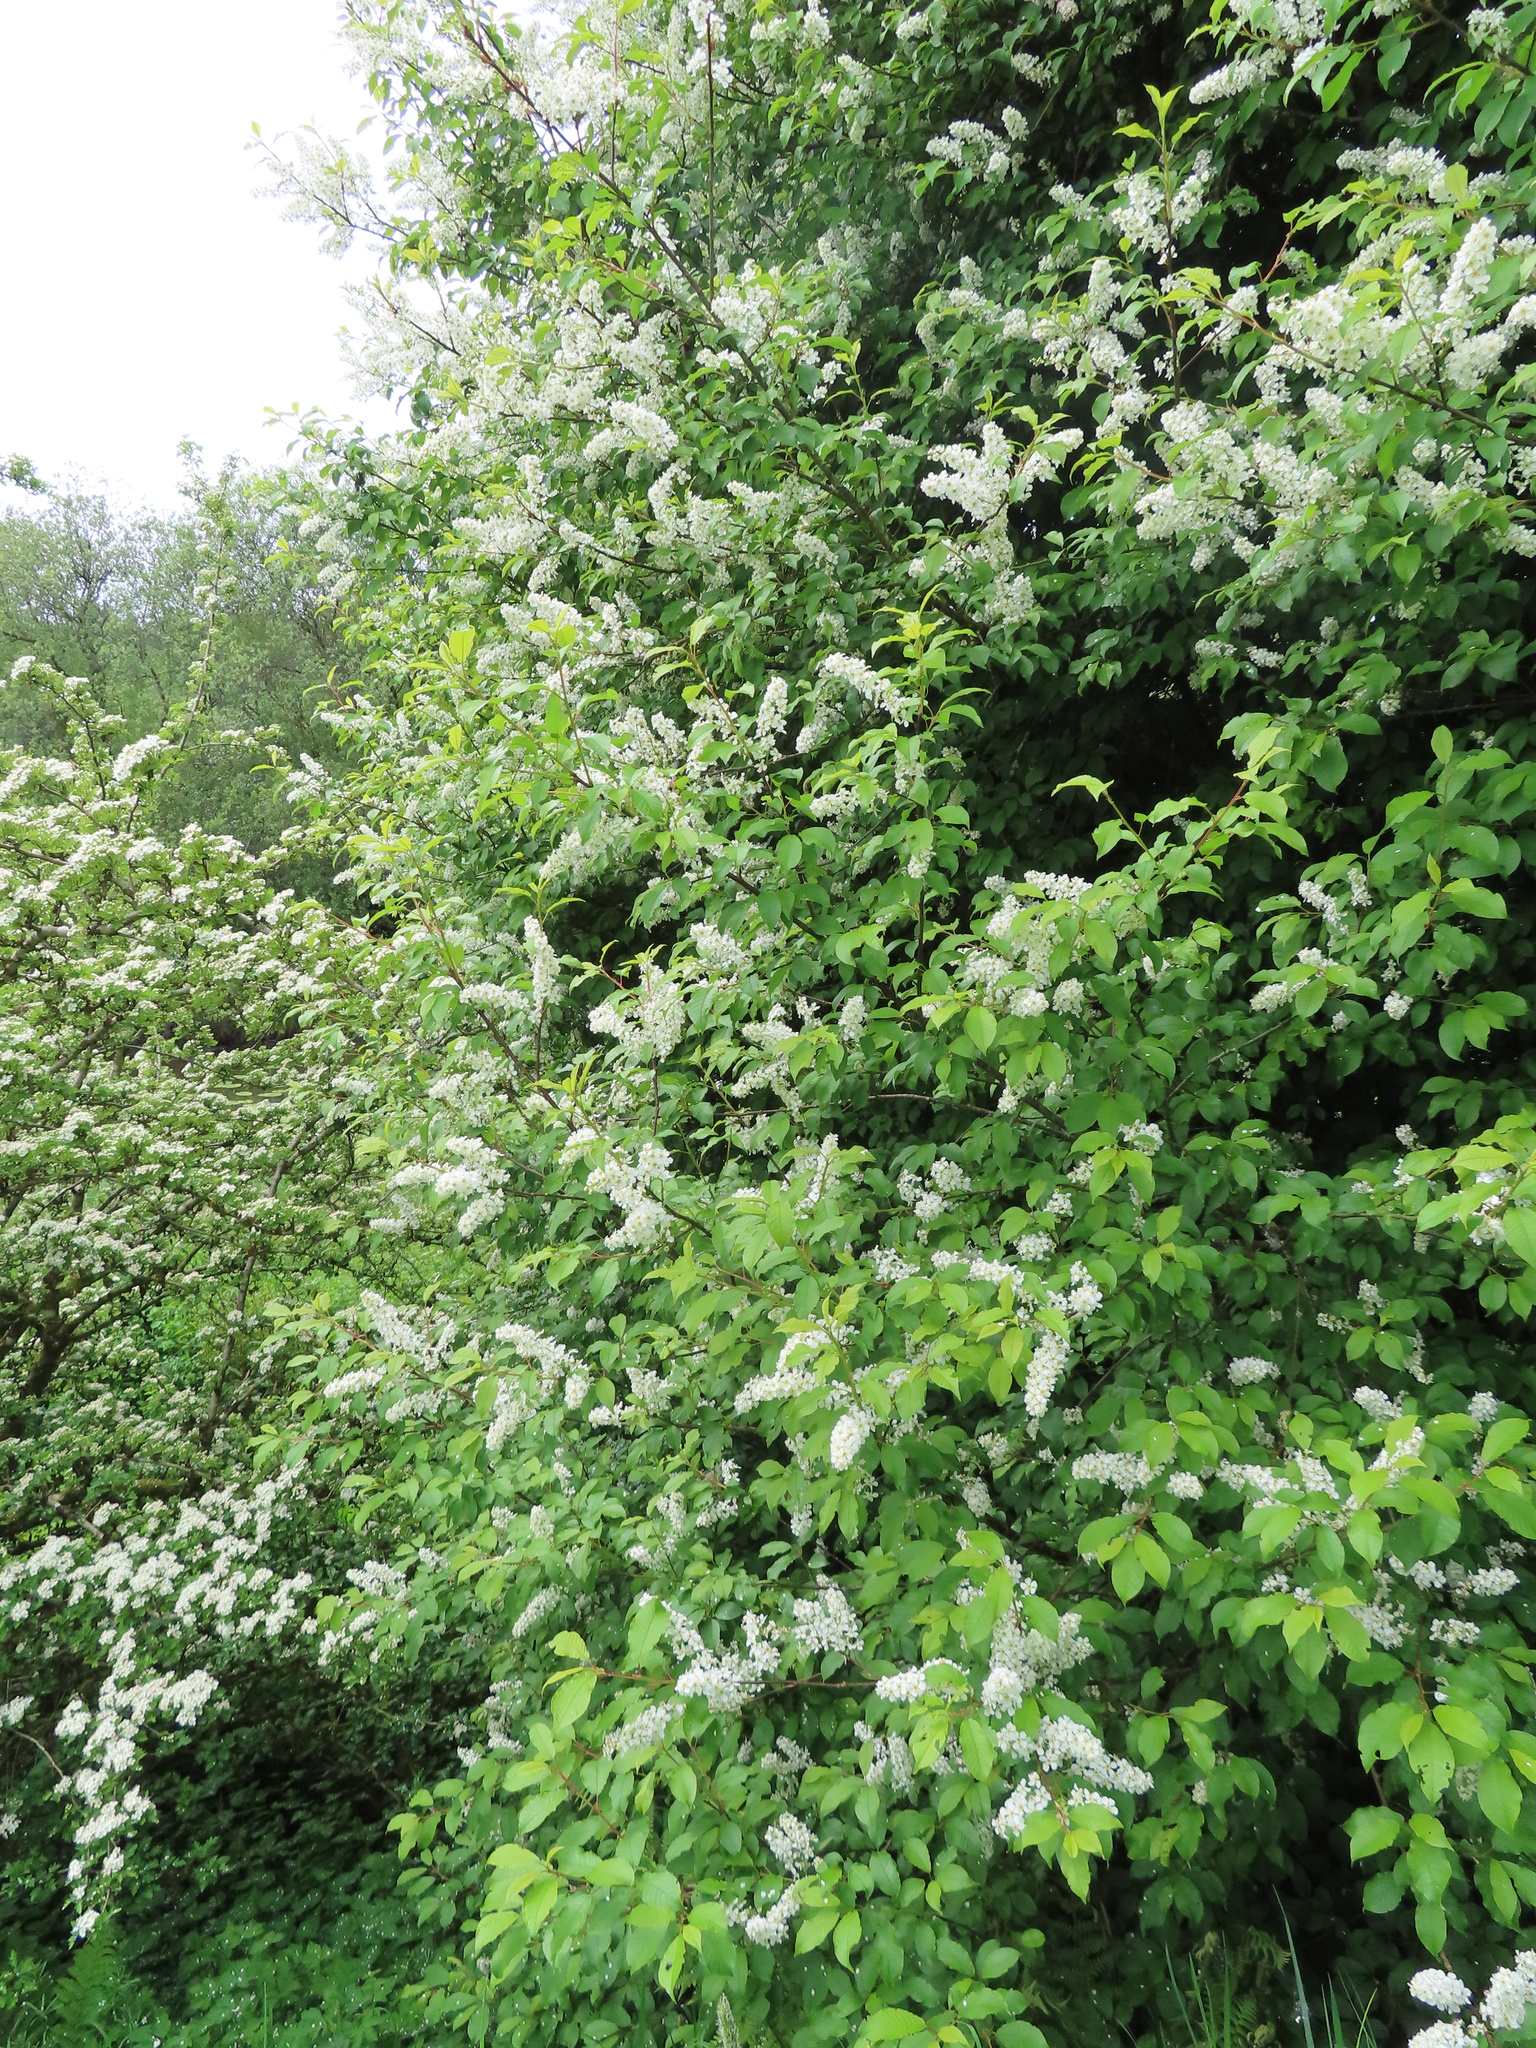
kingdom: Plantae
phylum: Tracheophyta
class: Magnoliopsida
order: Rosales
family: Rosaceae
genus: Prunus
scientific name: Prunus padus
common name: Bird cherry
